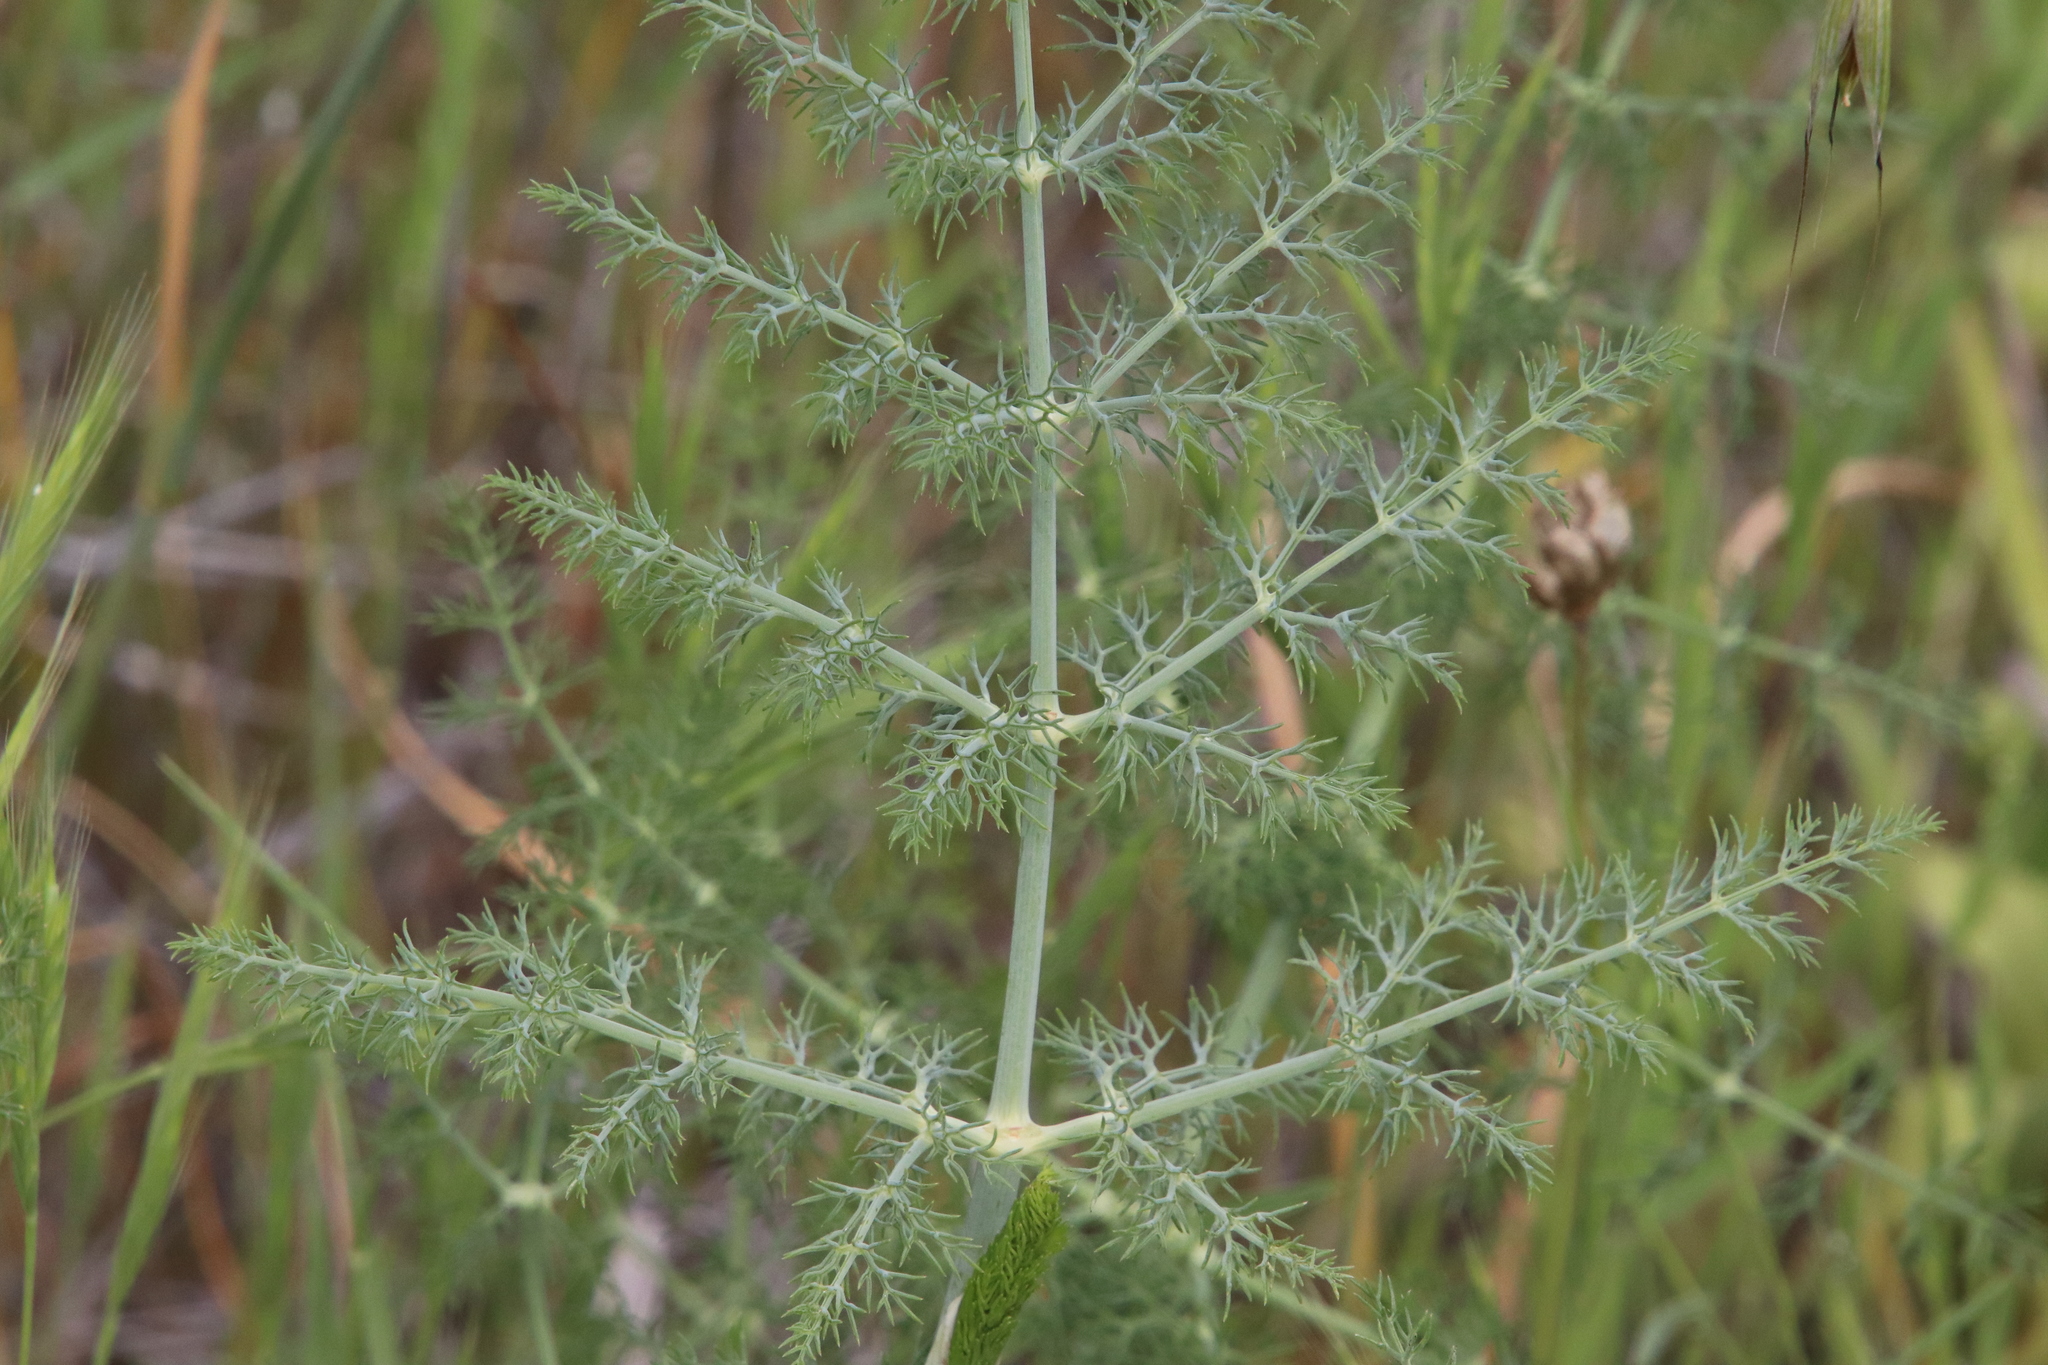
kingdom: Plantae
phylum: Tracheophyta
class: Magnoliopsida
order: Apiales
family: Apiaceae
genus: Foeniculum
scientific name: Foeniculum vulgare
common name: Fennel
